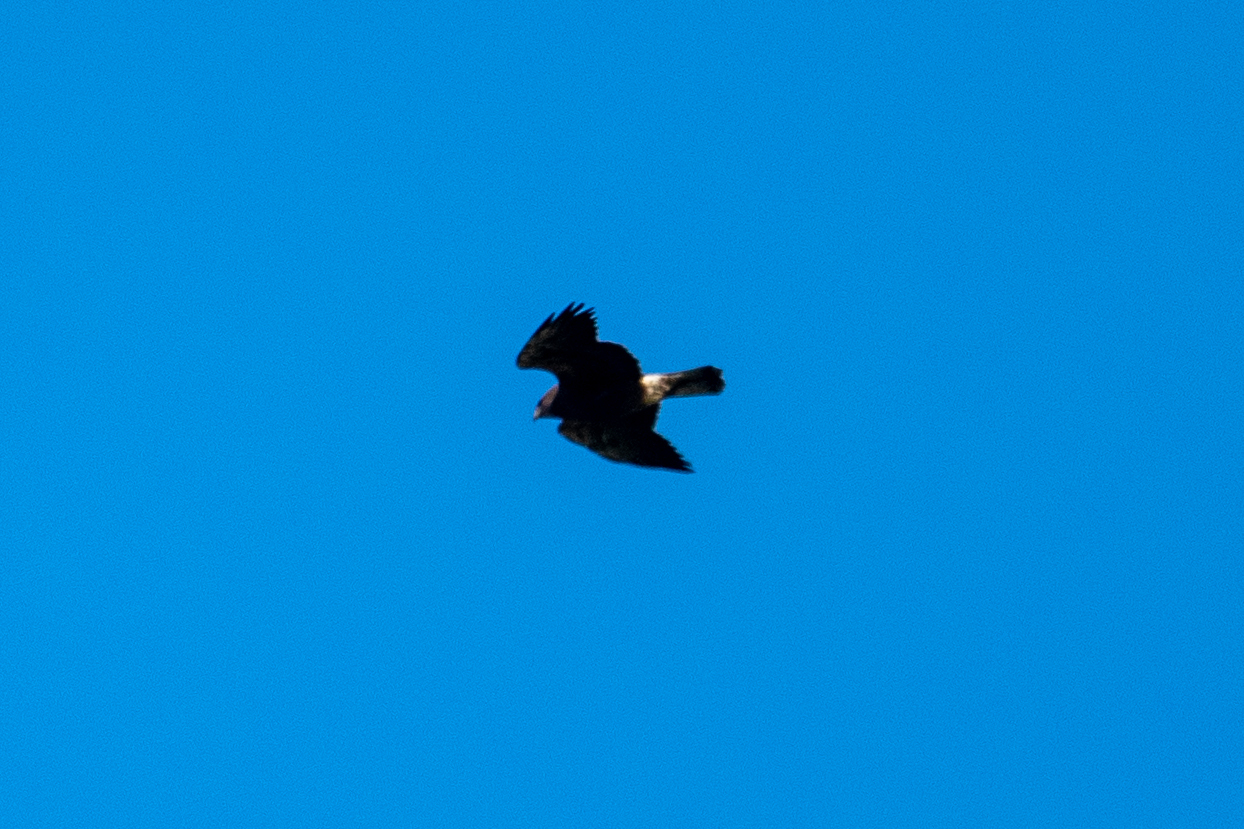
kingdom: Animalia
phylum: Chordata
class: Aves
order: Accipitriformes
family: Accipitridae
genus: Buteo
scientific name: Buteo swainsoni
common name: Swainson's hawk
